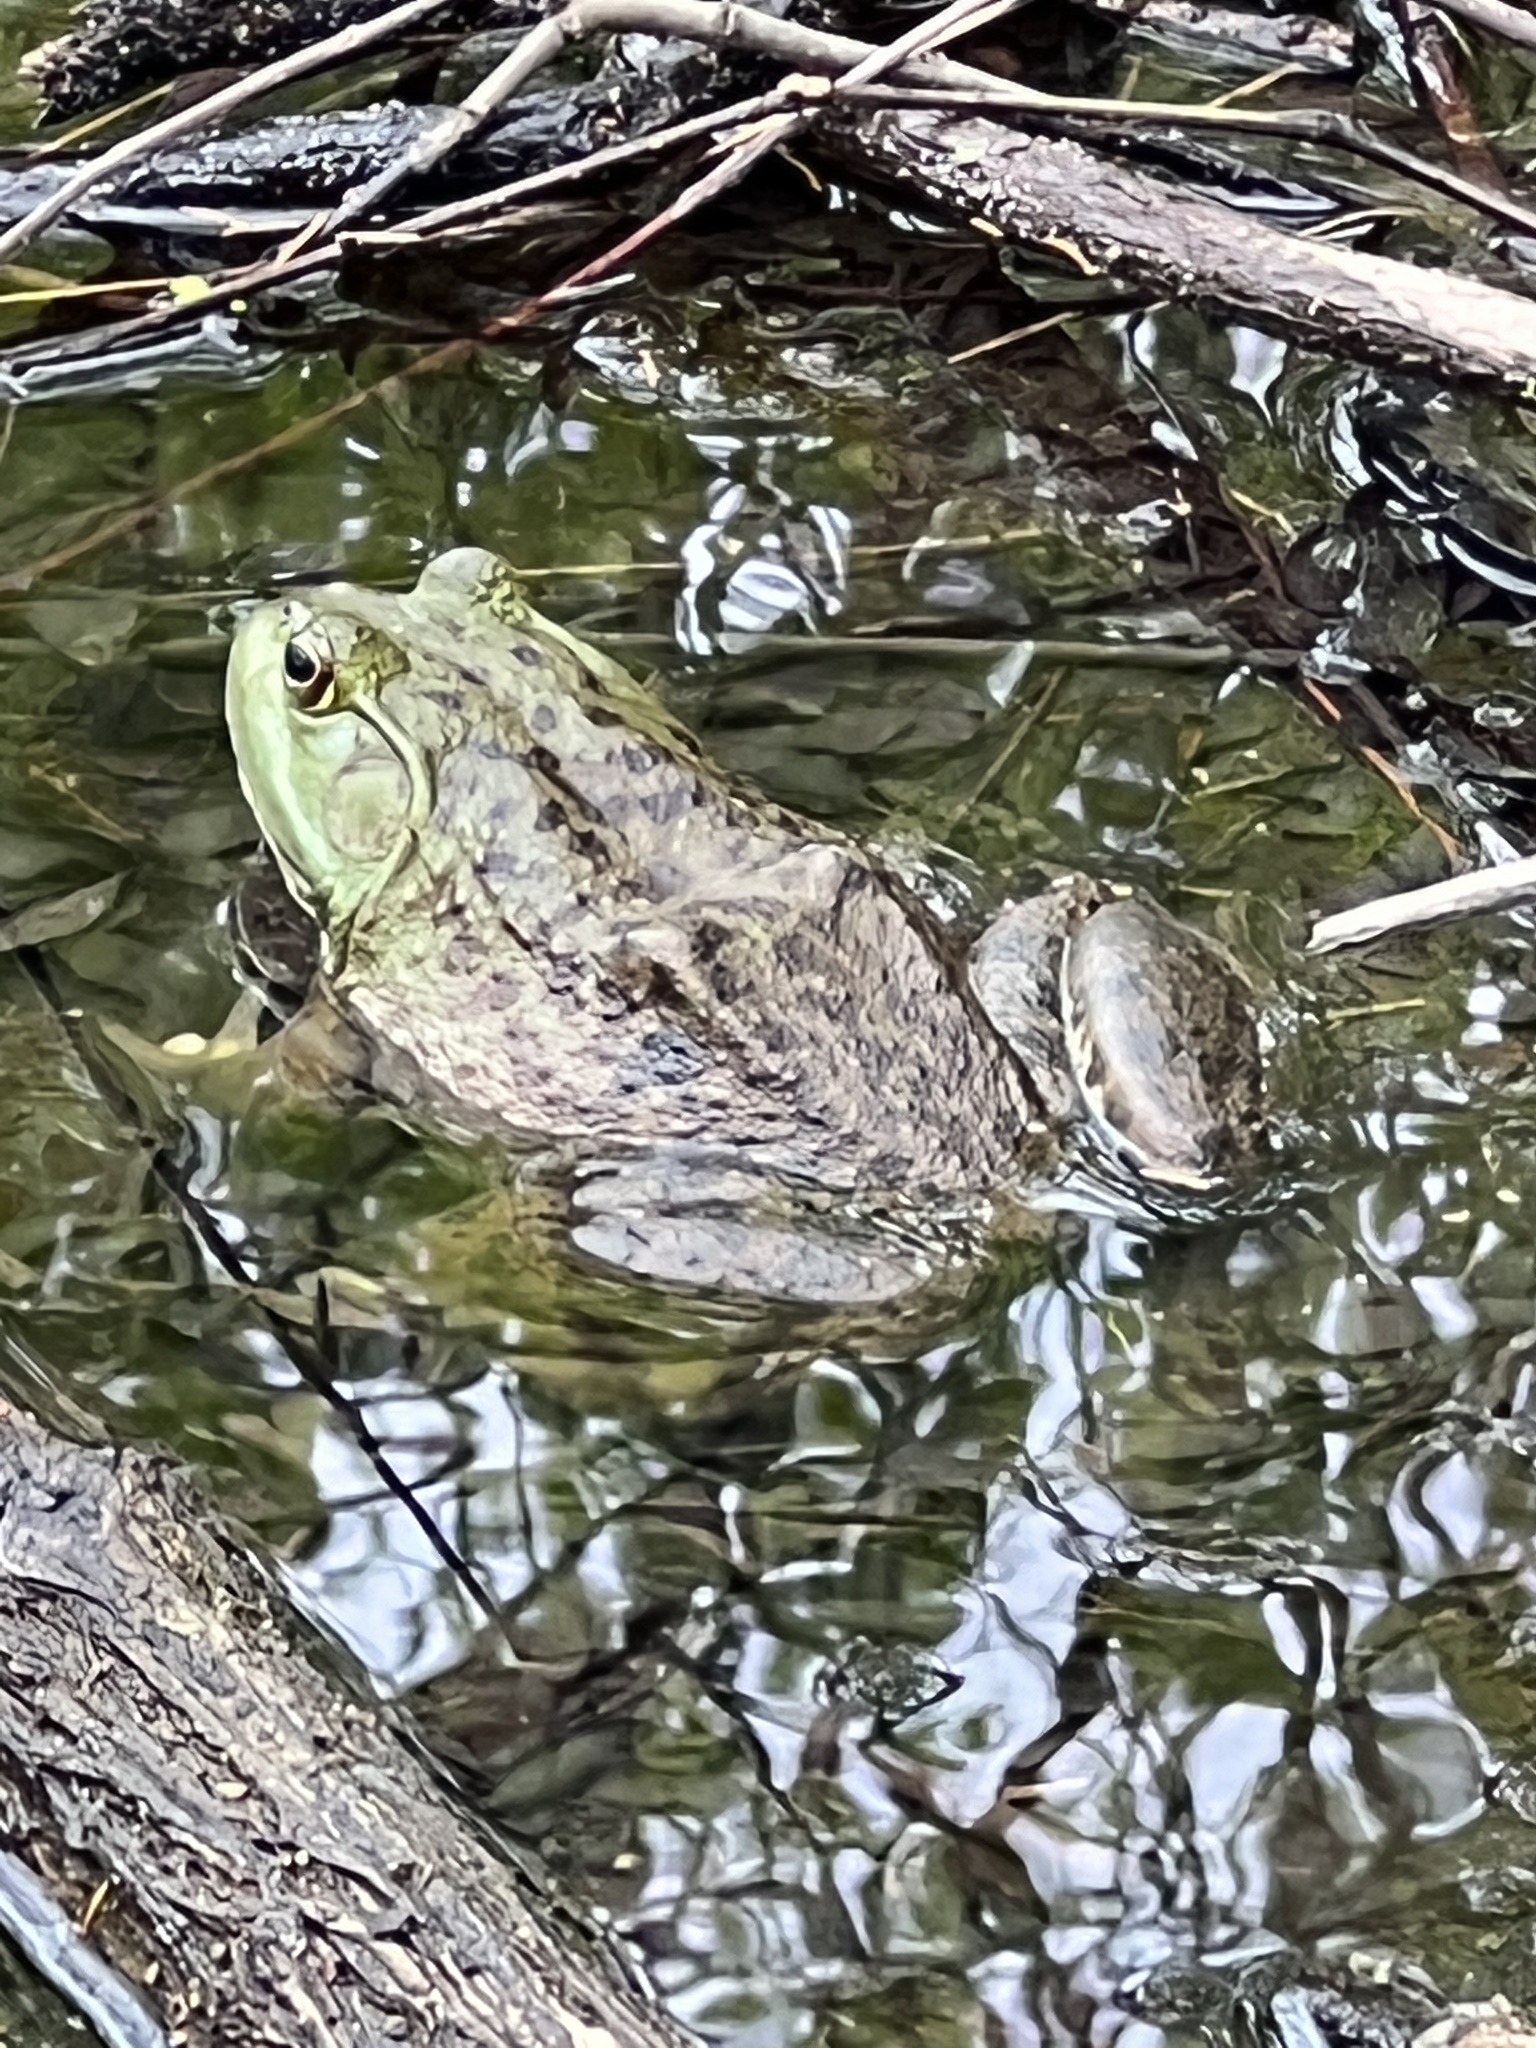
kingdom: Animalia
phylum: Chordata
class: Amphibia
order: Anura
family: Ranidae
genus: Lithobates
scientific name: Lithobates catesbeianus
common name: American bullfrog
